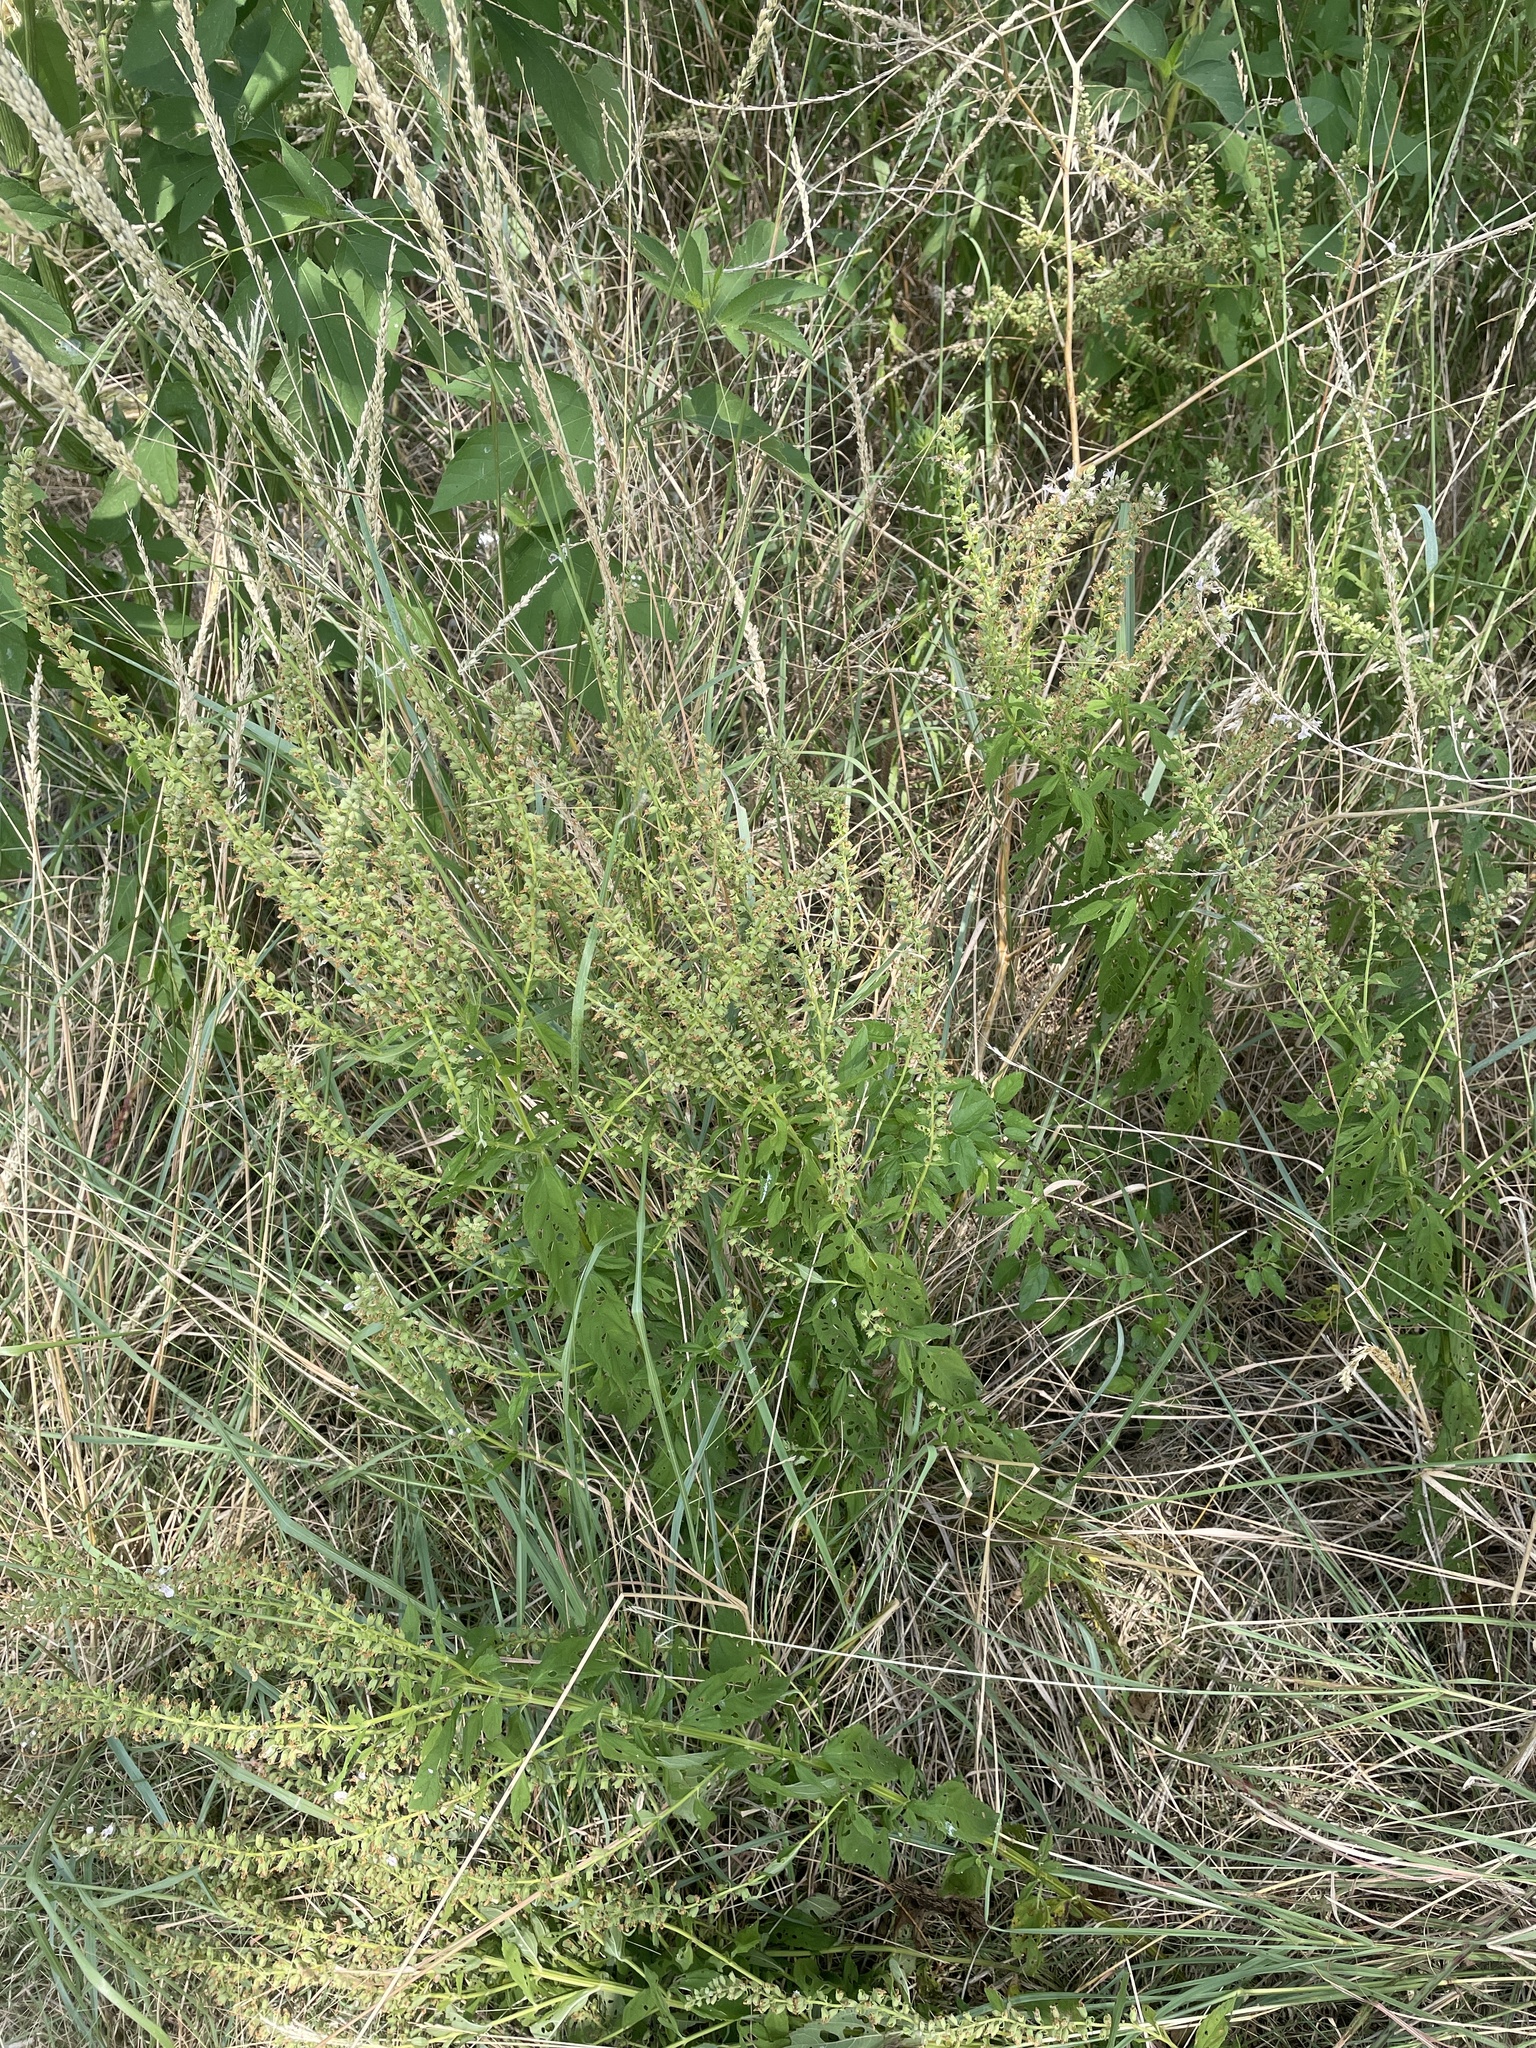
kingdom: Plantae
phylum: Tracheophyta
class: Magnoliopsida
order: Lamiales
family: Lamiaceae
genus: Teucrium
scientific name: Teucrium canadense
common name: American germander
